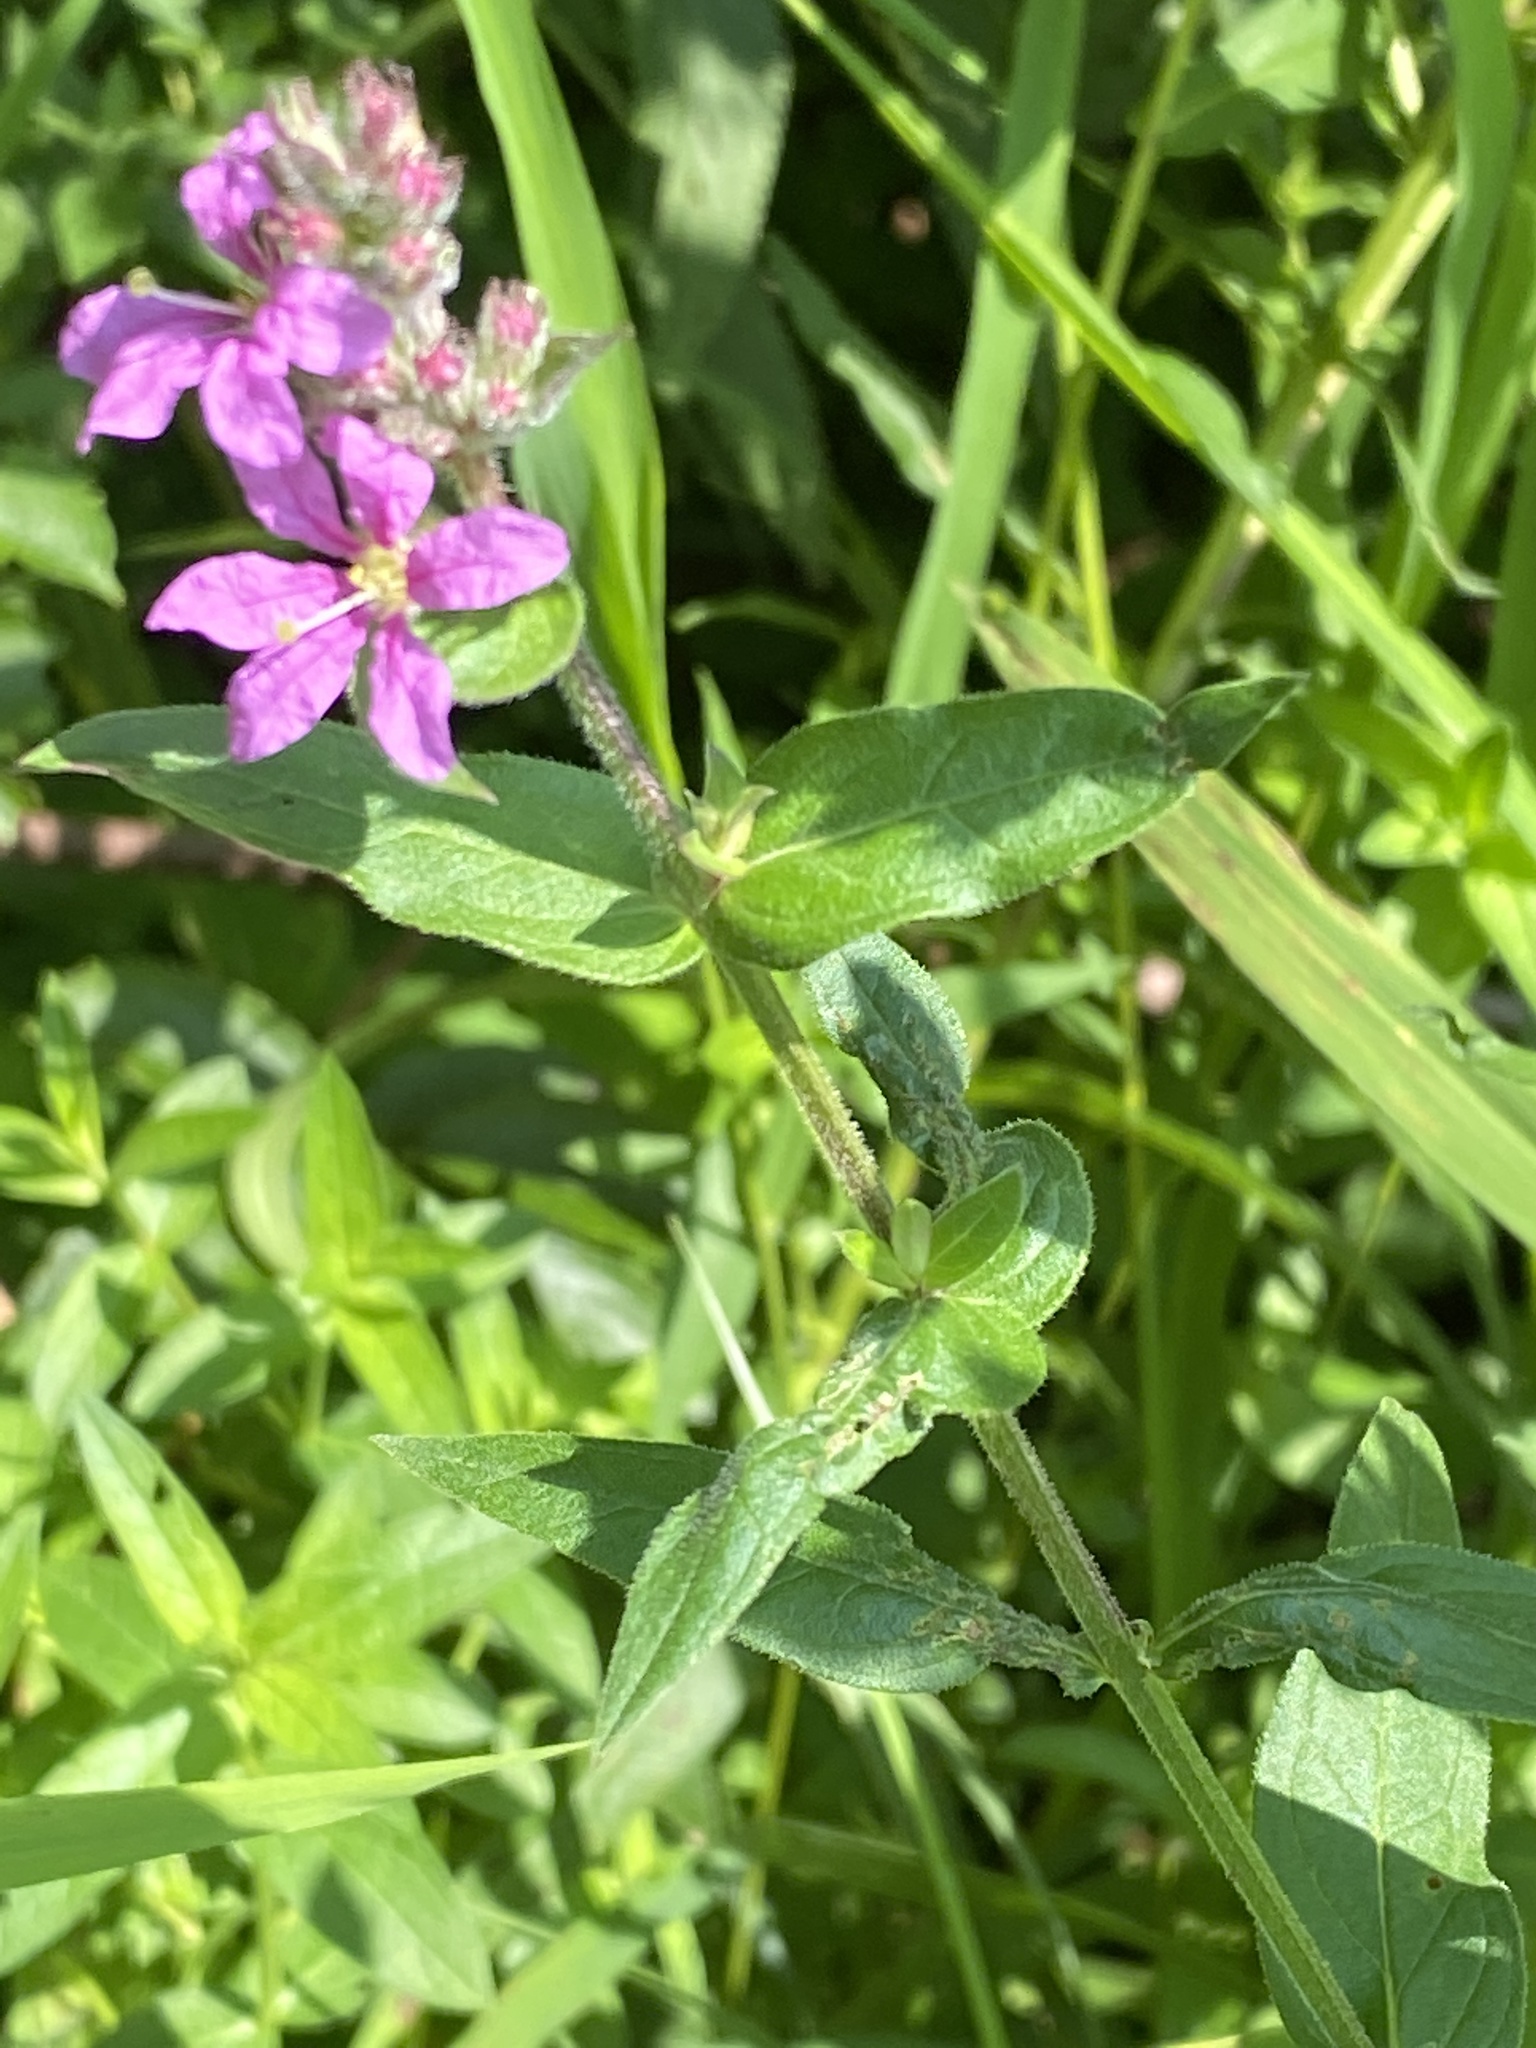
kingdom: Plantae
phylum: Tracheophyta
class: Magnoliopsida
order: Myrtales
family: Lythraceae
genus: Lythrum
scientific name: Lythrum salicaria
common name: Purple loosestrife
